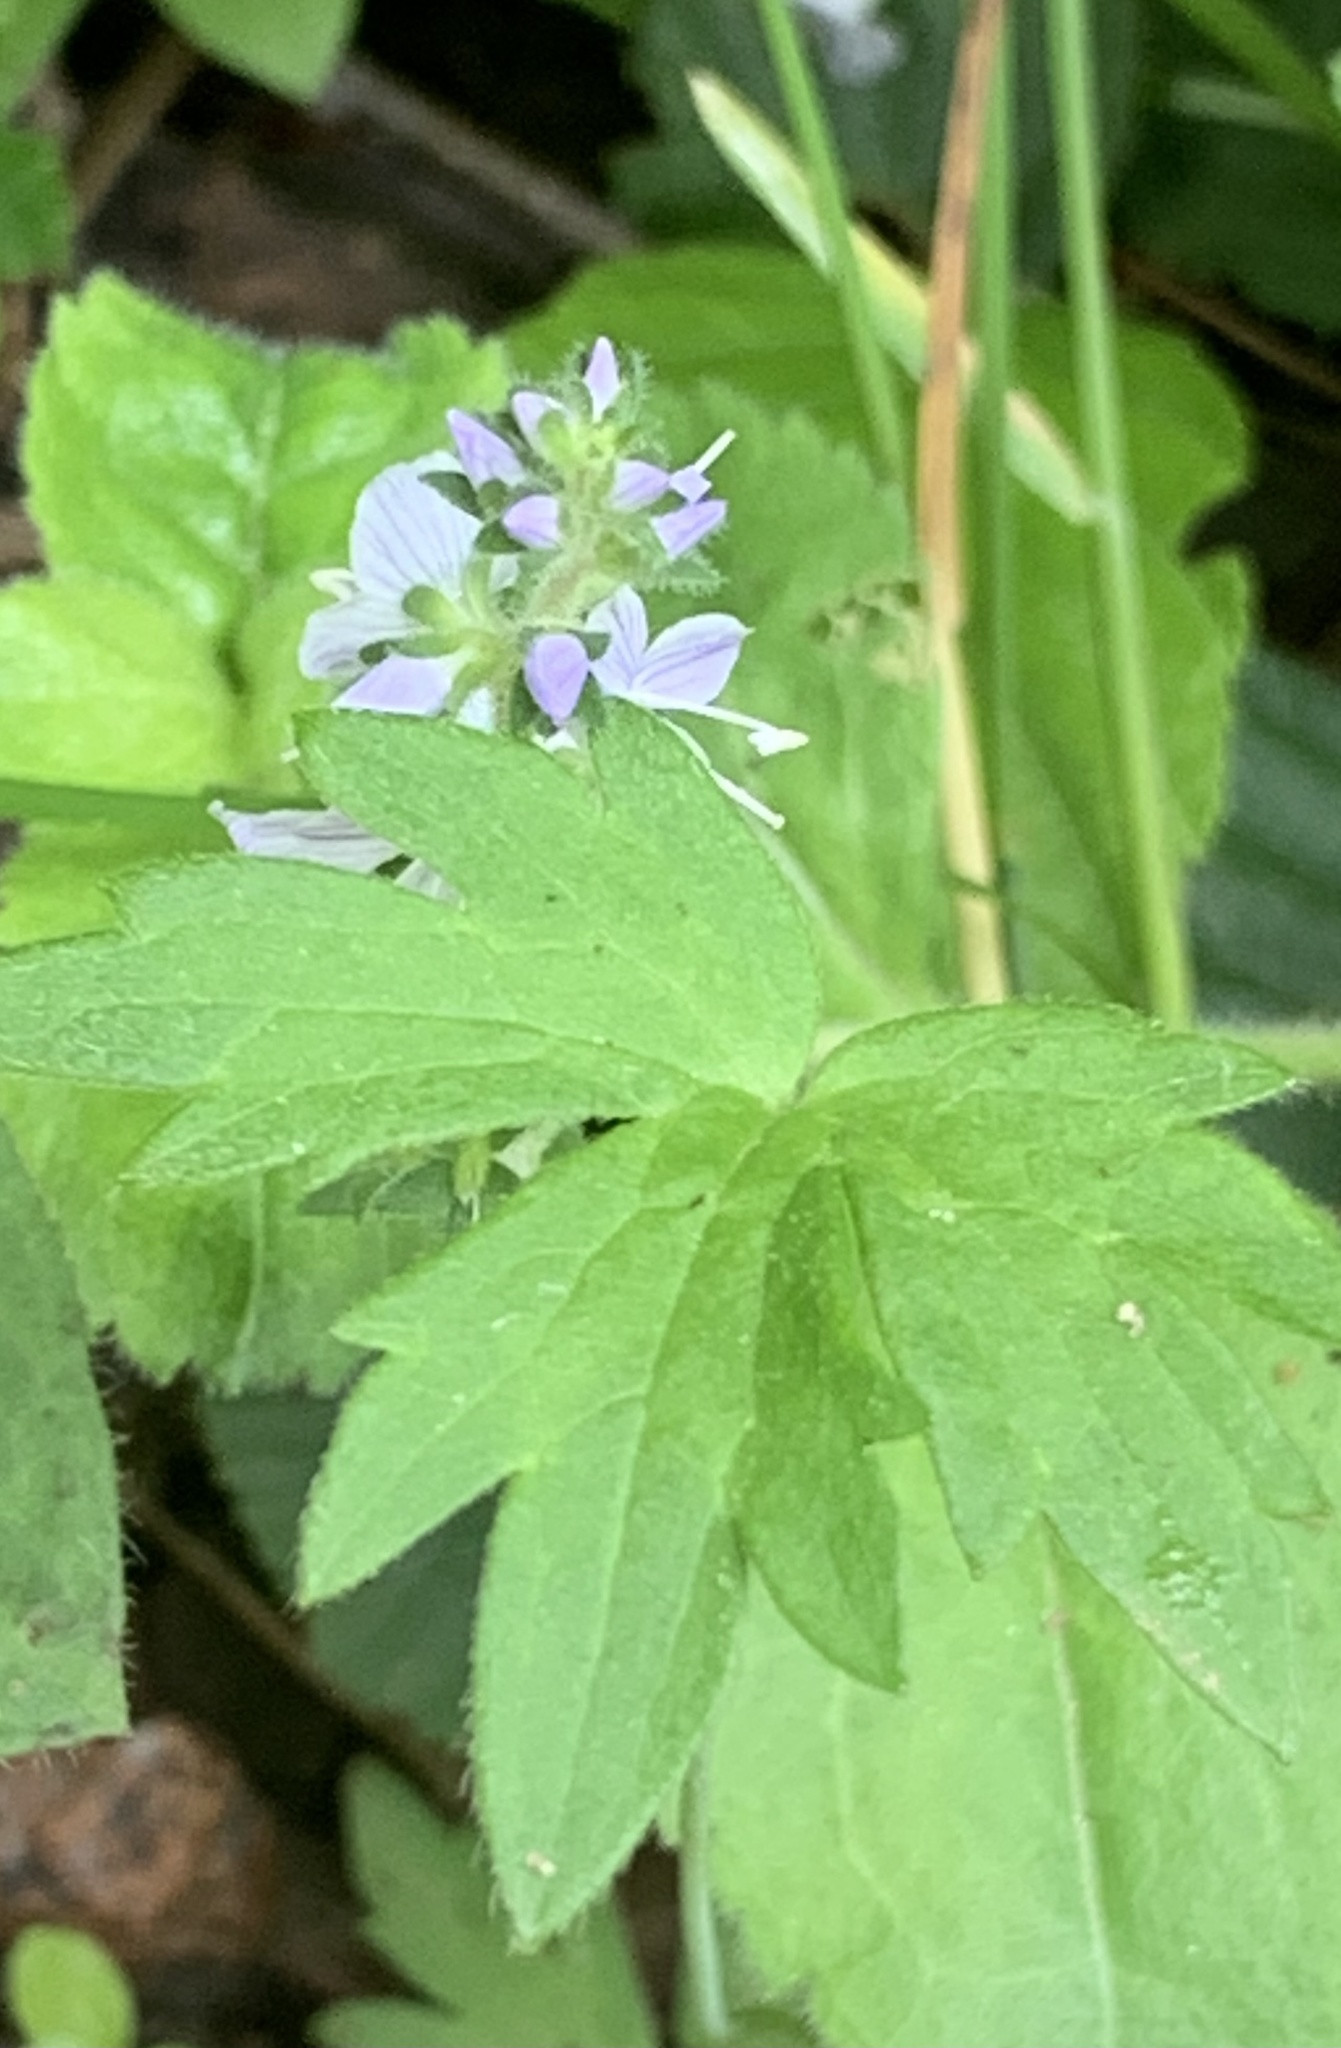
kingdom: Plantae
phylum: Tracheophyta
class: Magnoliopsida
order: Lamiales
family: Plantaginaceae
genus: Veronica
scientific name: Veronica officinalis
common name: Common speedwell
